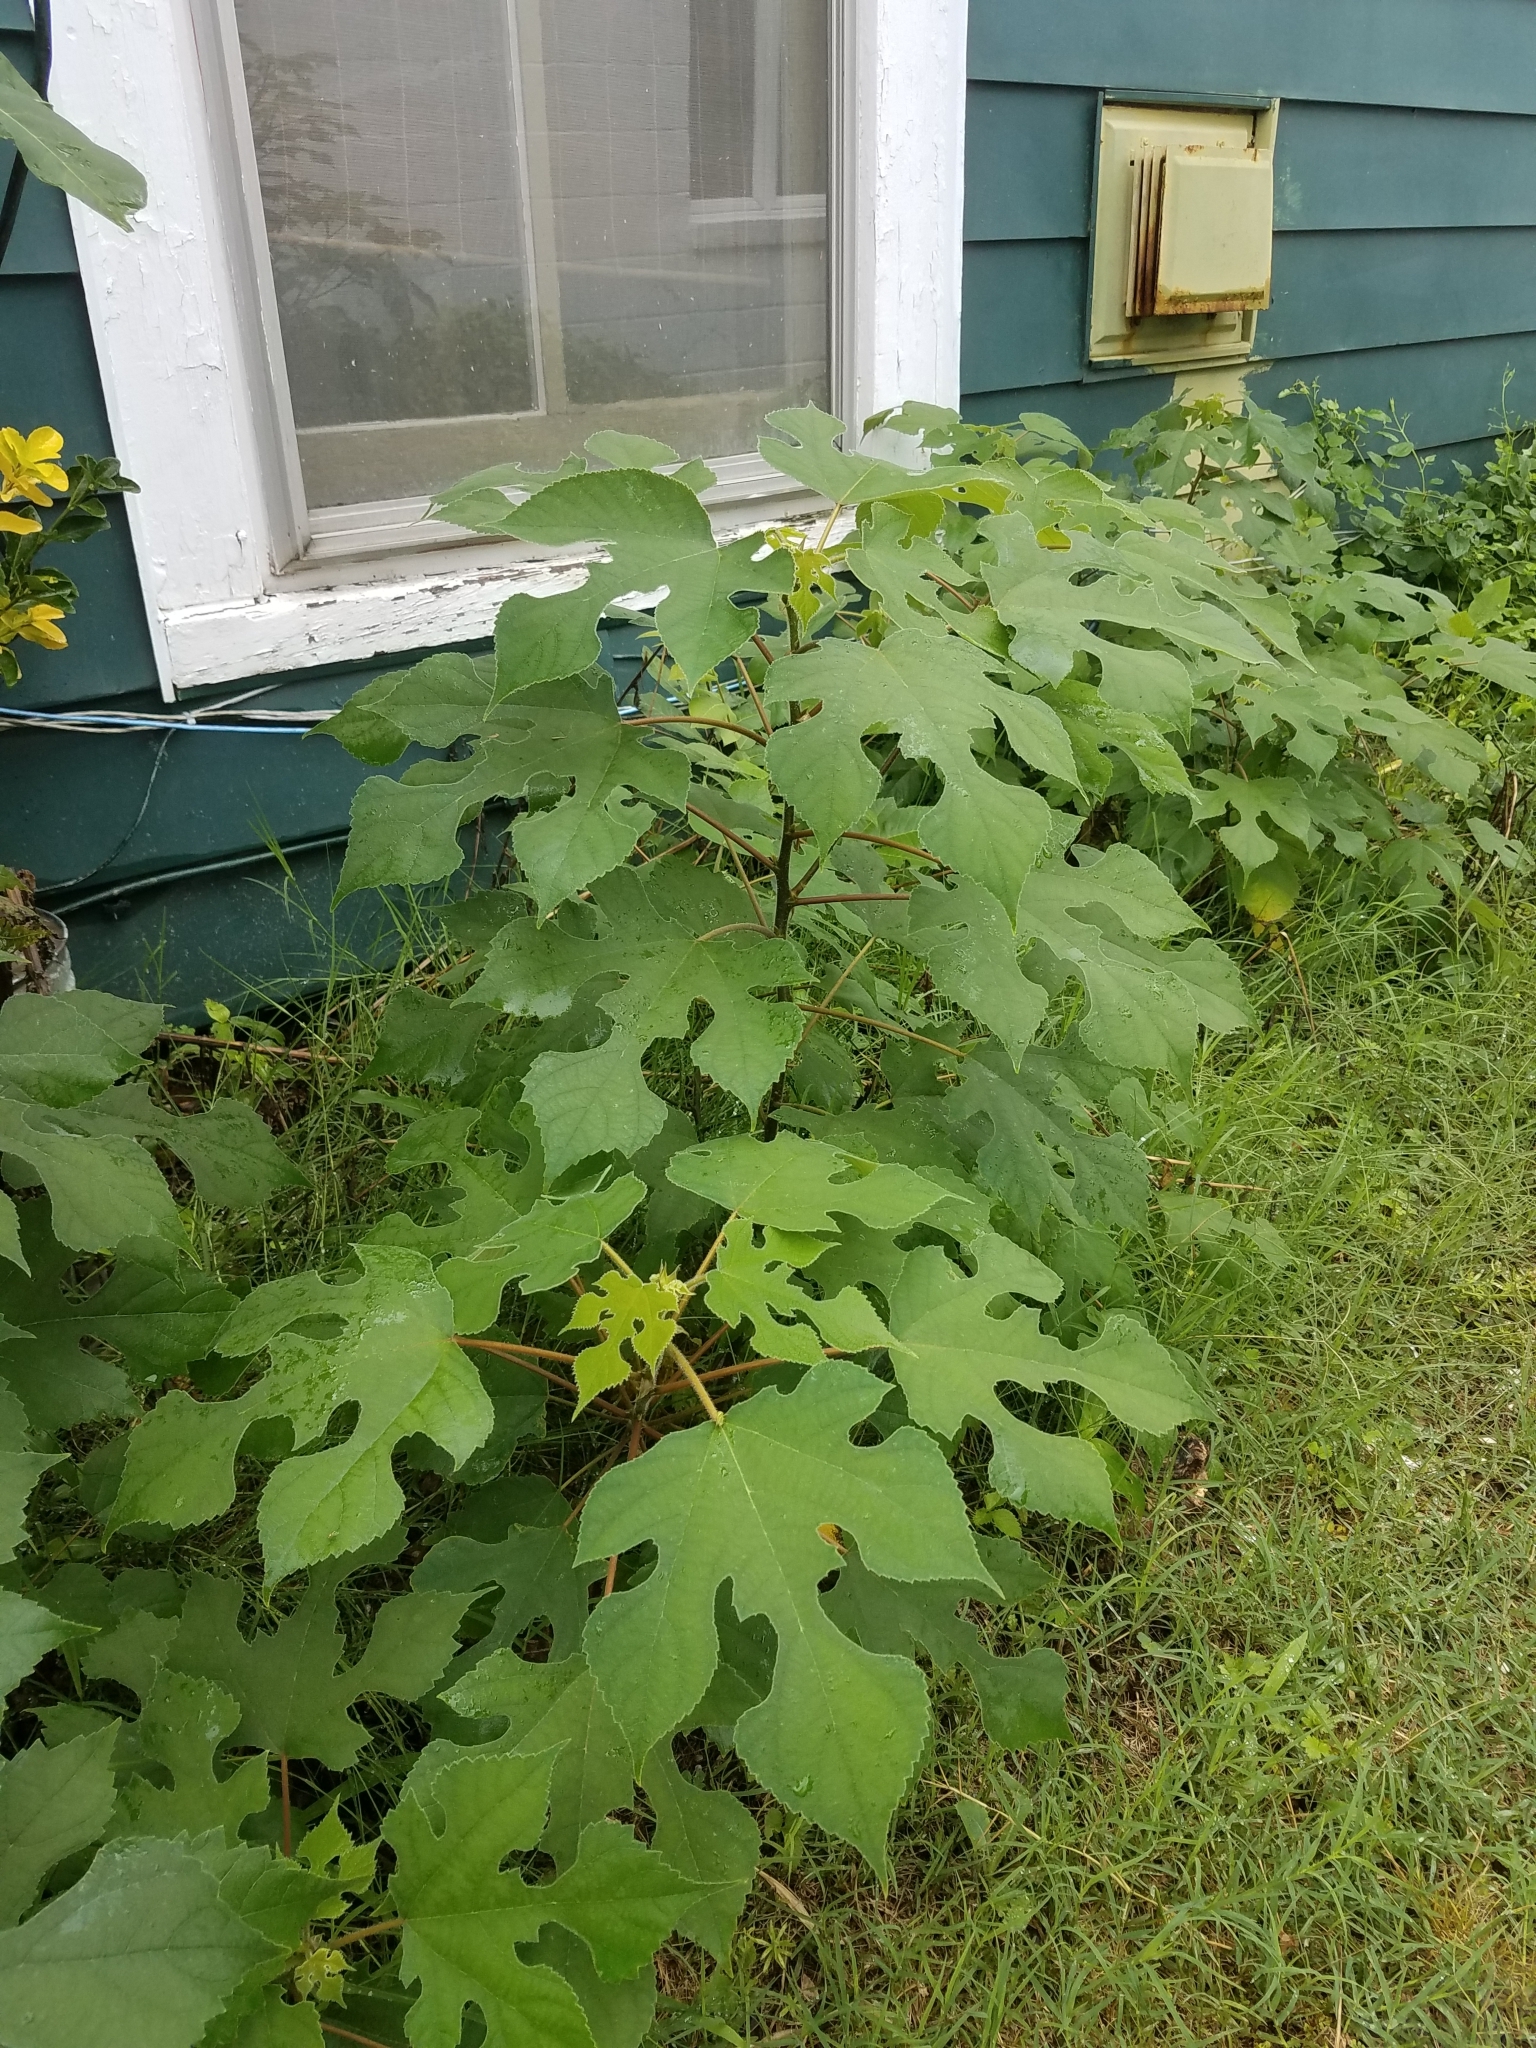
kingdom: Plantae
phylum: Tracheophyta
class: Magnoliopsida
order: Rosales
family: Moraceae
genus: Broussonetia
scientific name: Broussonetia papyrifera
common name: Paper mulberry
